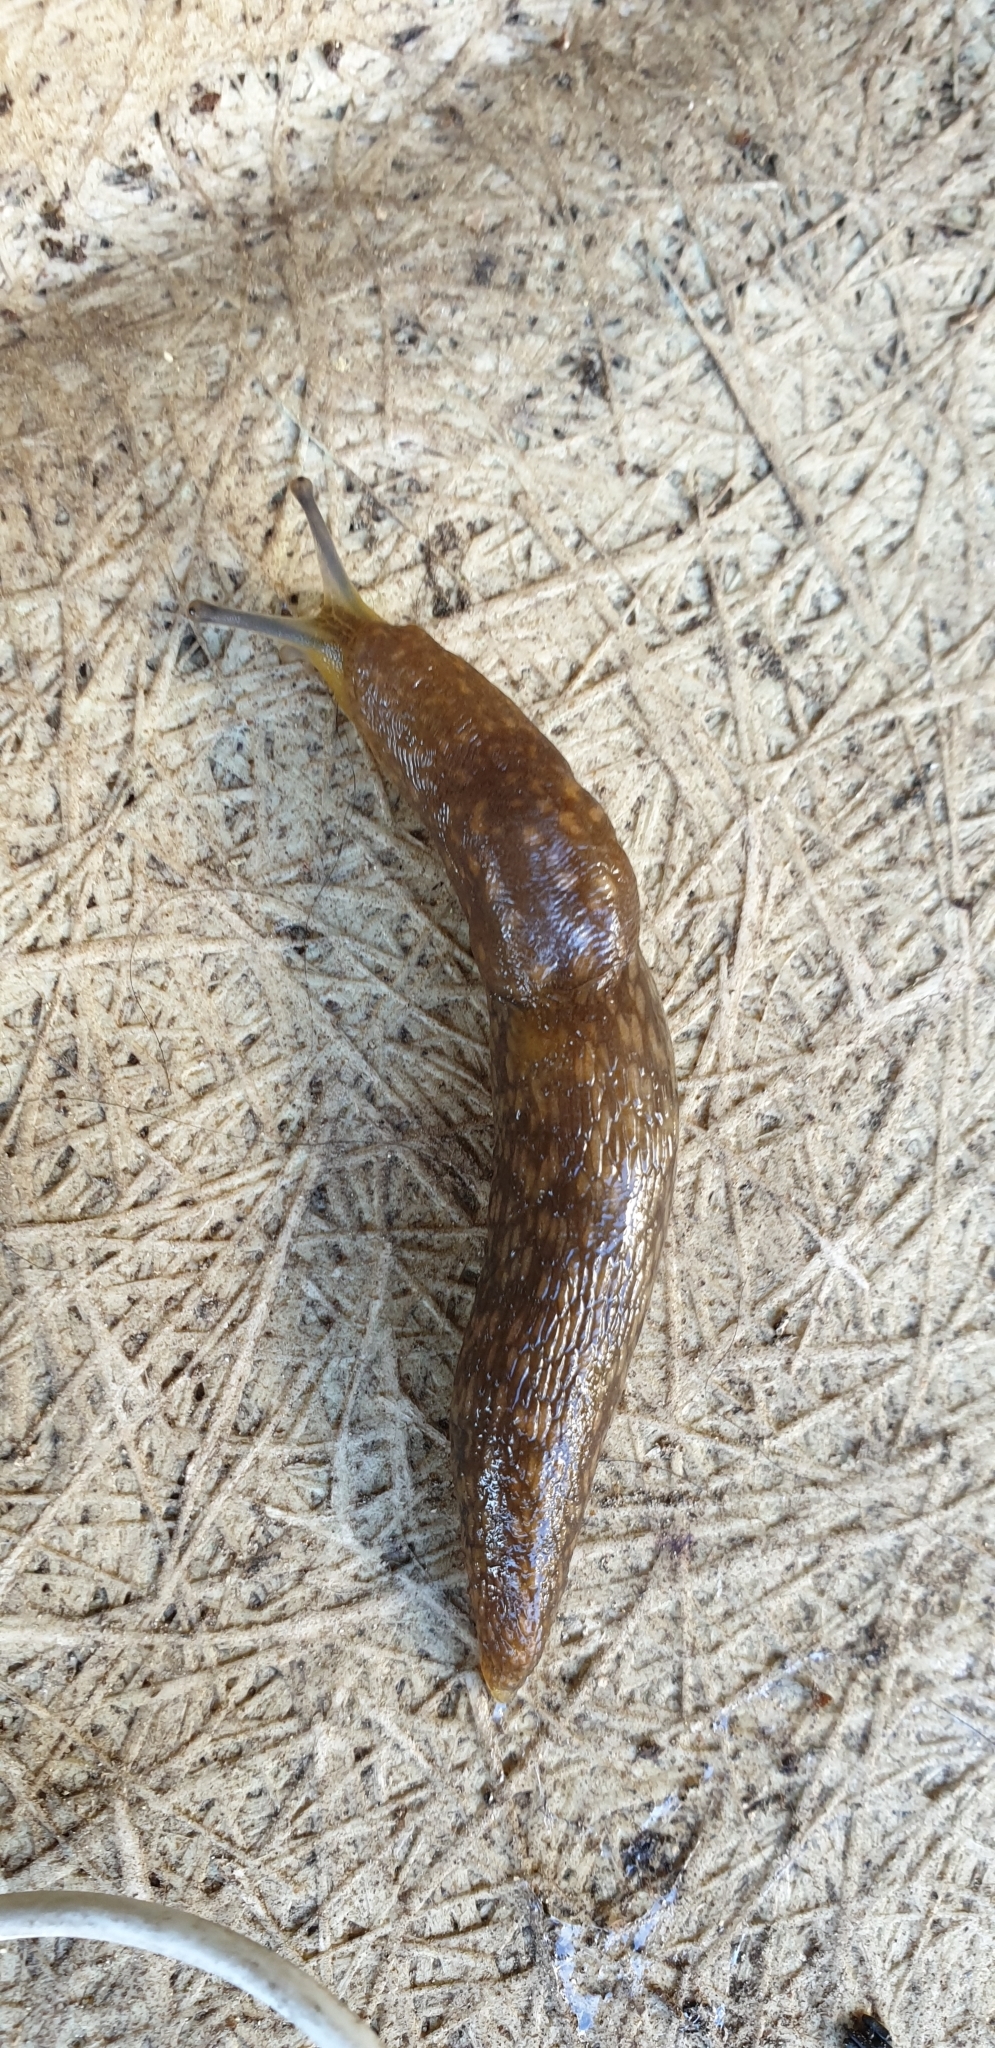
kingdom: Animalia
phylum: Mollusca
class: Gastropoda
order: Stylommatophora
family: Limacidae
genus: Limacus
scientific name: Limacus flavus
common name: Yellow gardenslug
